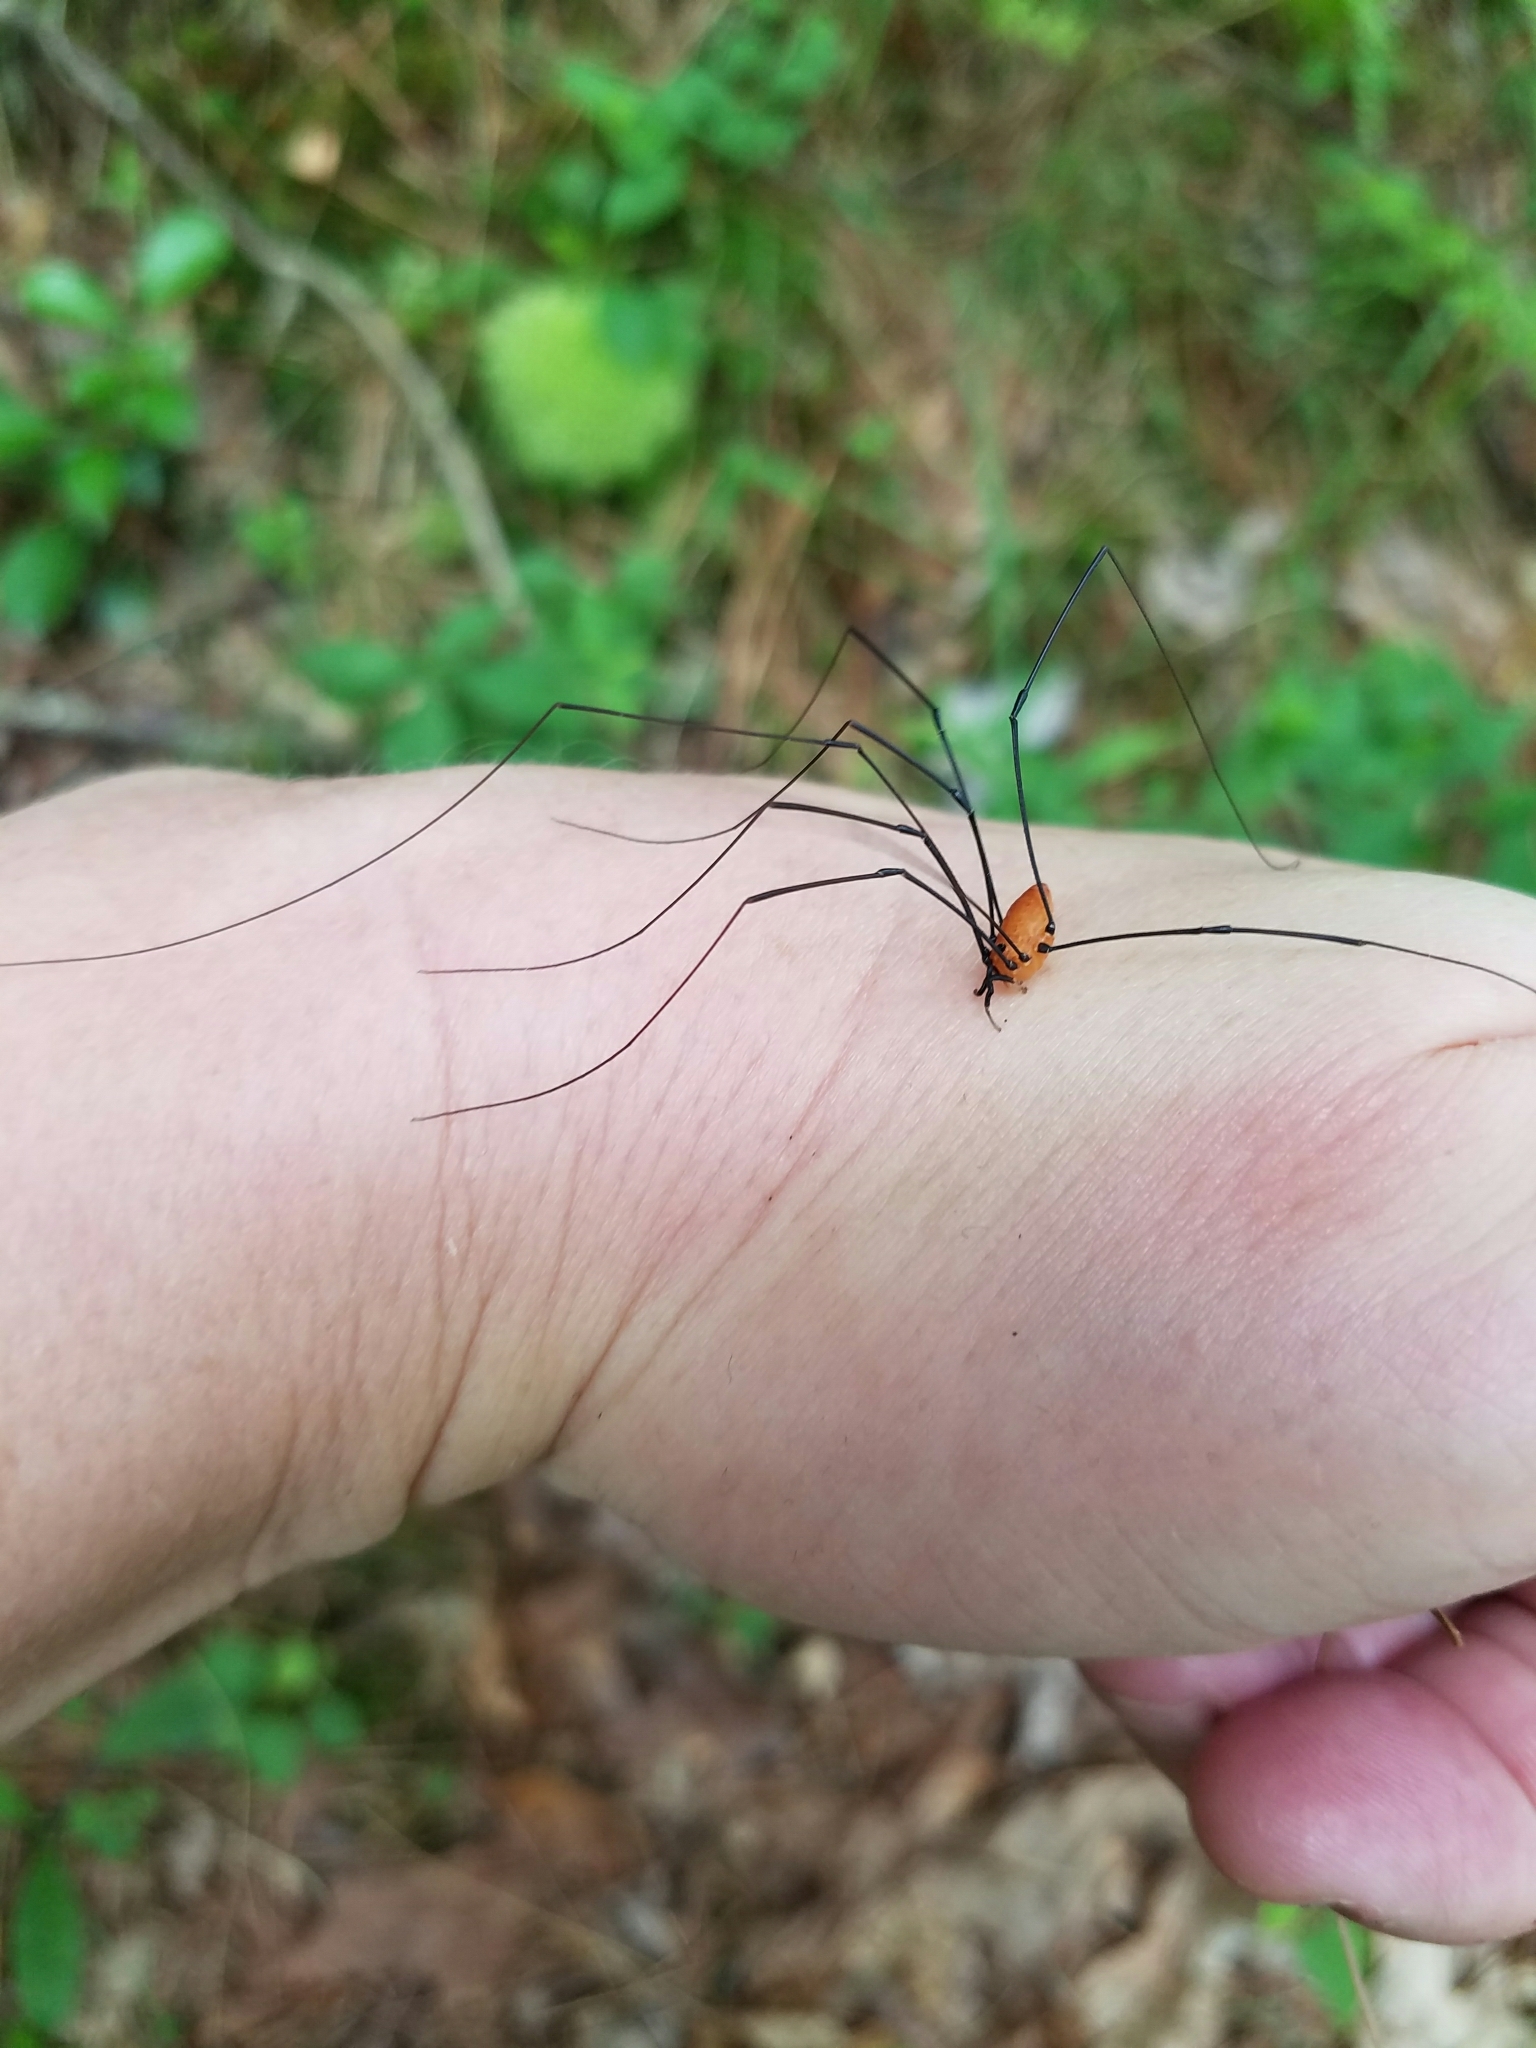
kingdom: Animalia
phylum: Arthropoda
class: Arachnida
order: Opiliones
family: Sclerosomatidae
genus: Leiobunum
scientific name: Leiobunum nigropalpi
